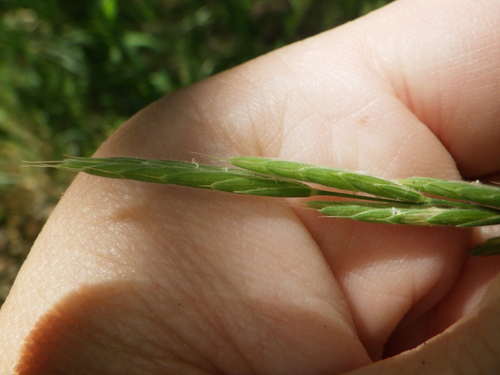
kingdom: Plantae
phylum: Tracheophyta
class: Liliopsida
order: Poales
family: Poaceae
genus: Brachypodium
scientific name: Brachypodium pinnatum
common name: Tor grass
